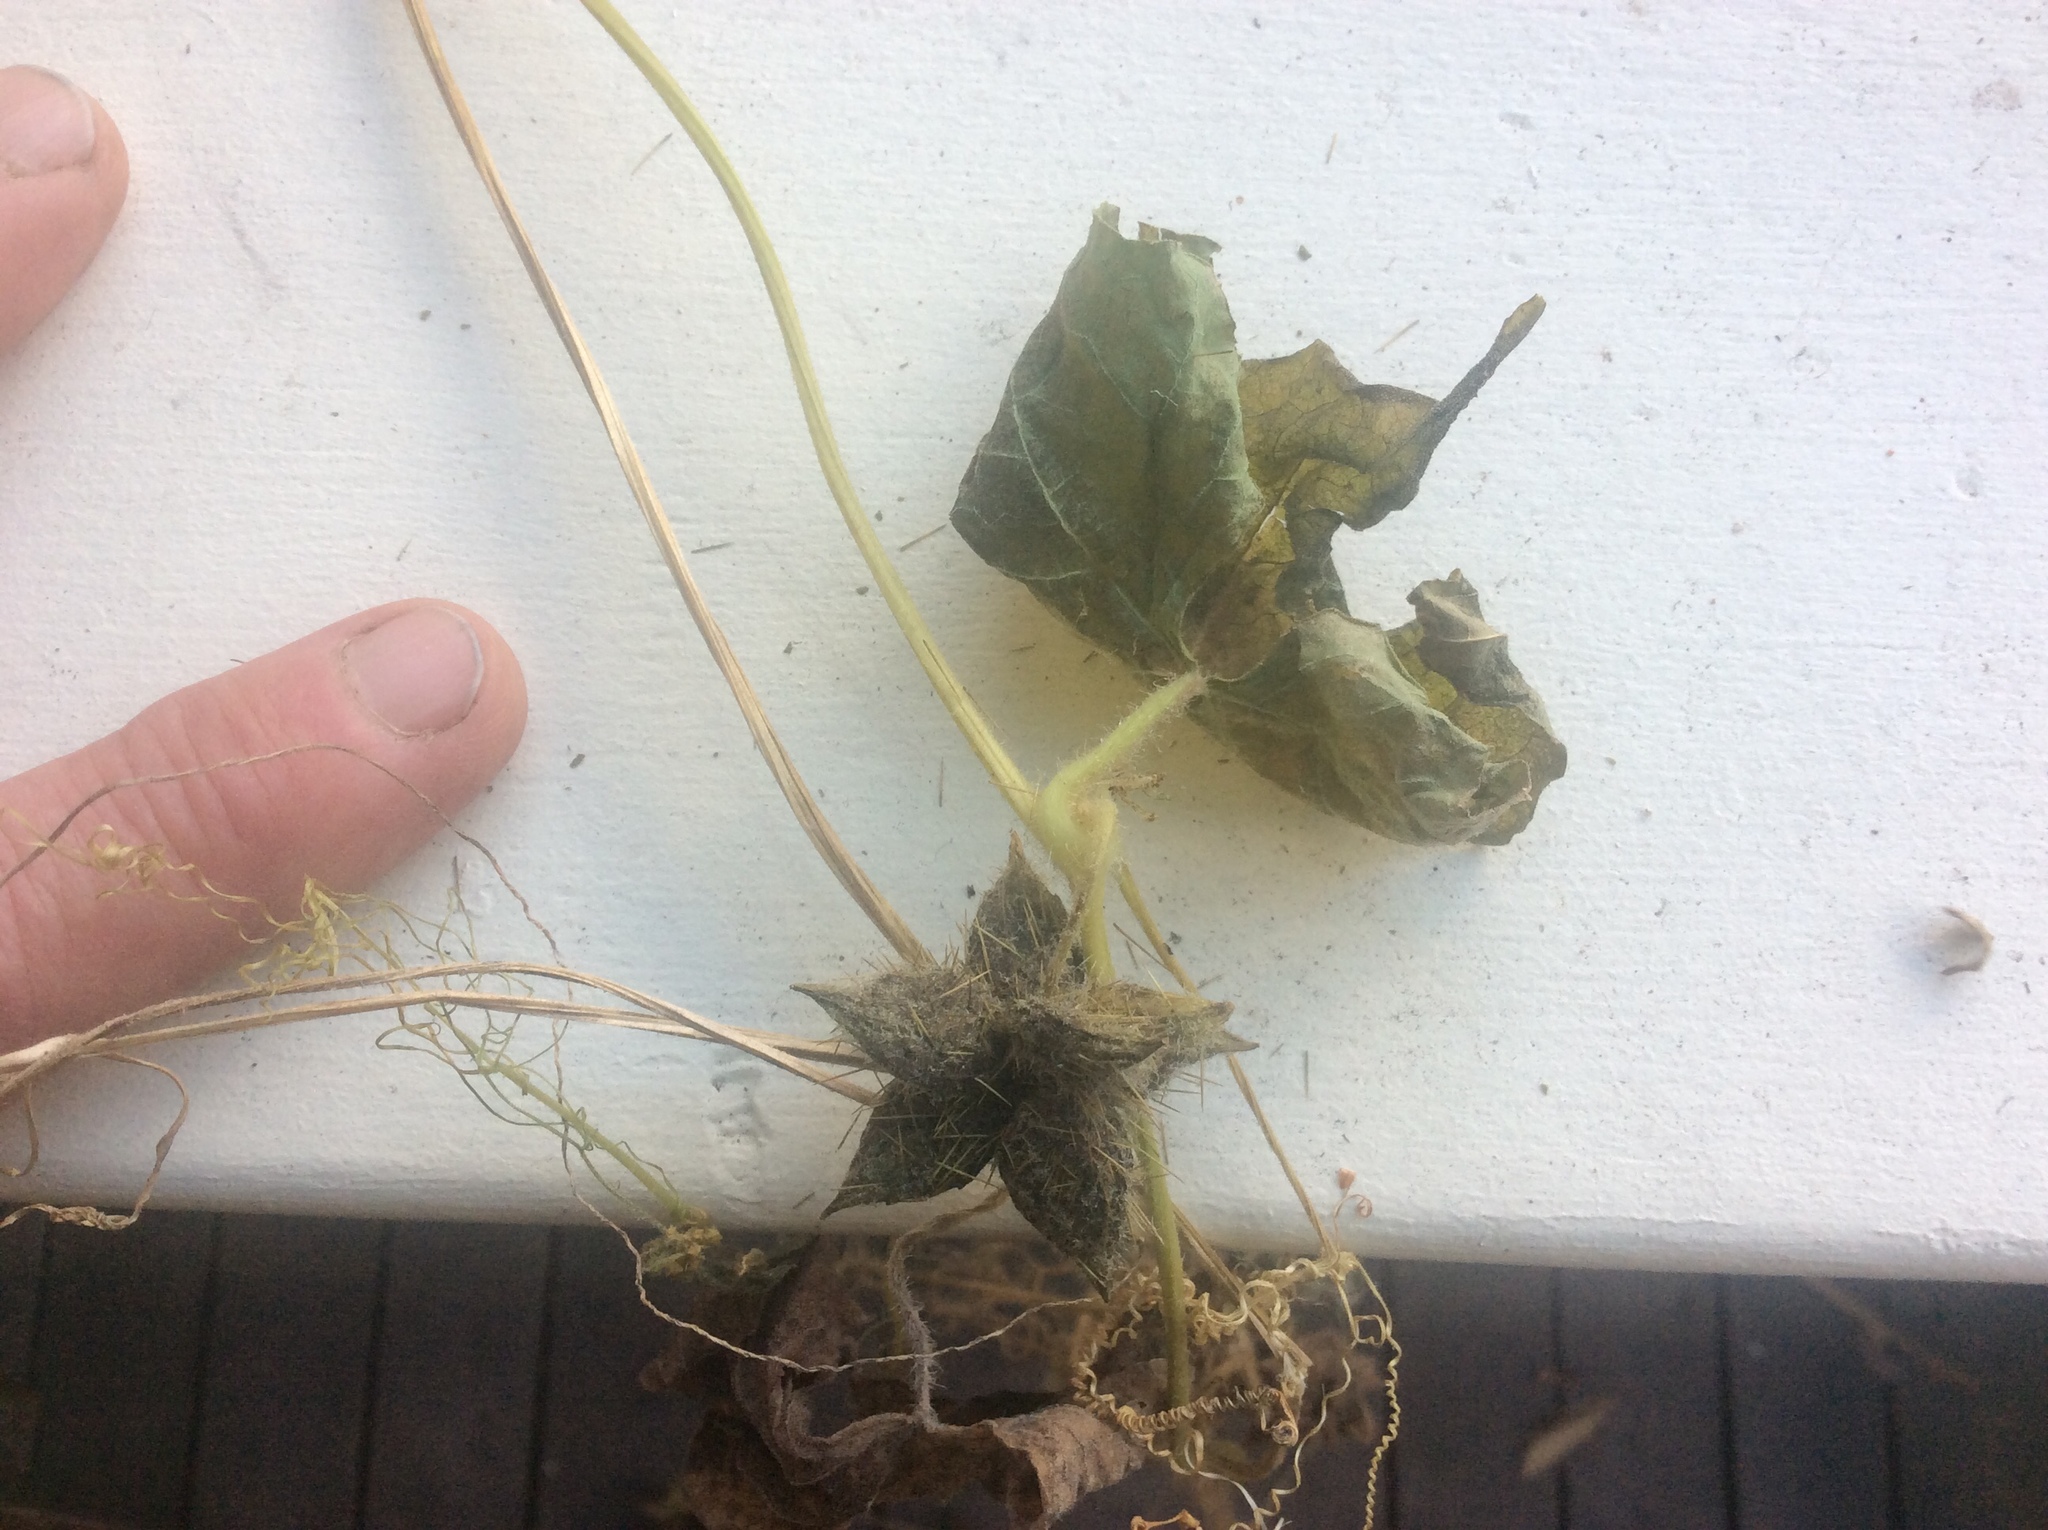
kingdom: Plantae
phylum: Tracheophyta
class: Magnoliopsida
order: Cucurbitales
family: Cucurbitaceae
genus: Sicyos
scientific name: Sicyos angulatus
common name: Angled burr cucumber
